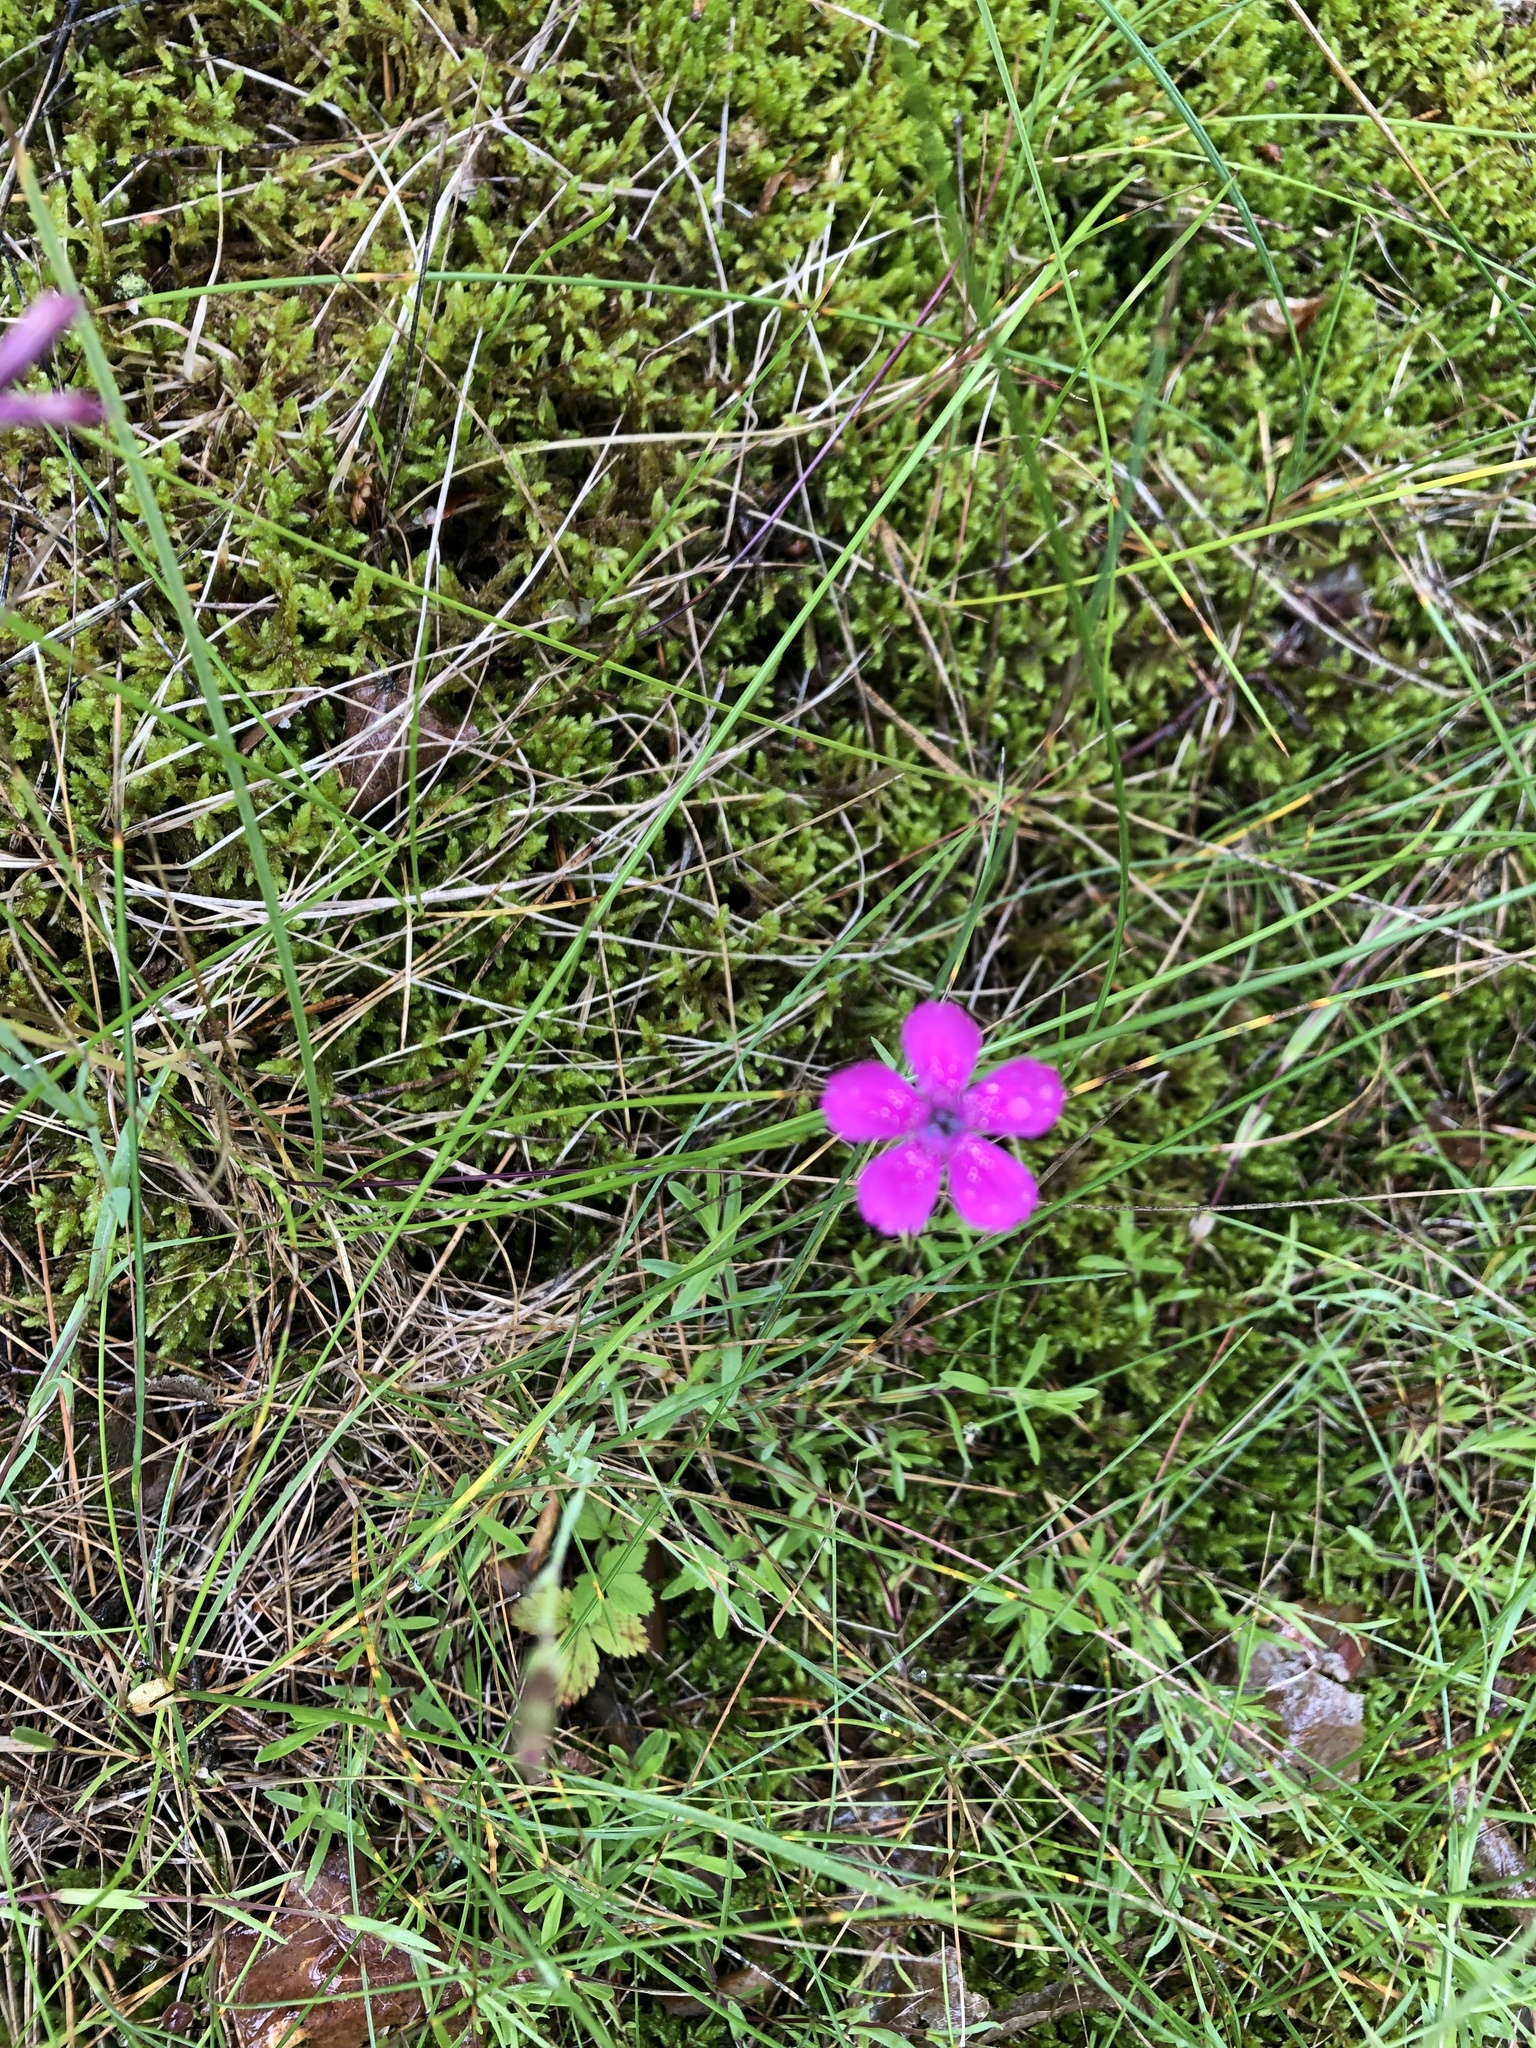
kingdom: Plantae
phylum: Tracheophyta
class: Magnoliopsida
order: Caryophyllales
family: Caryophyllaceae
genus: Dianthus
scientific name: Dianthus deltoides
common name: Maiden pink
